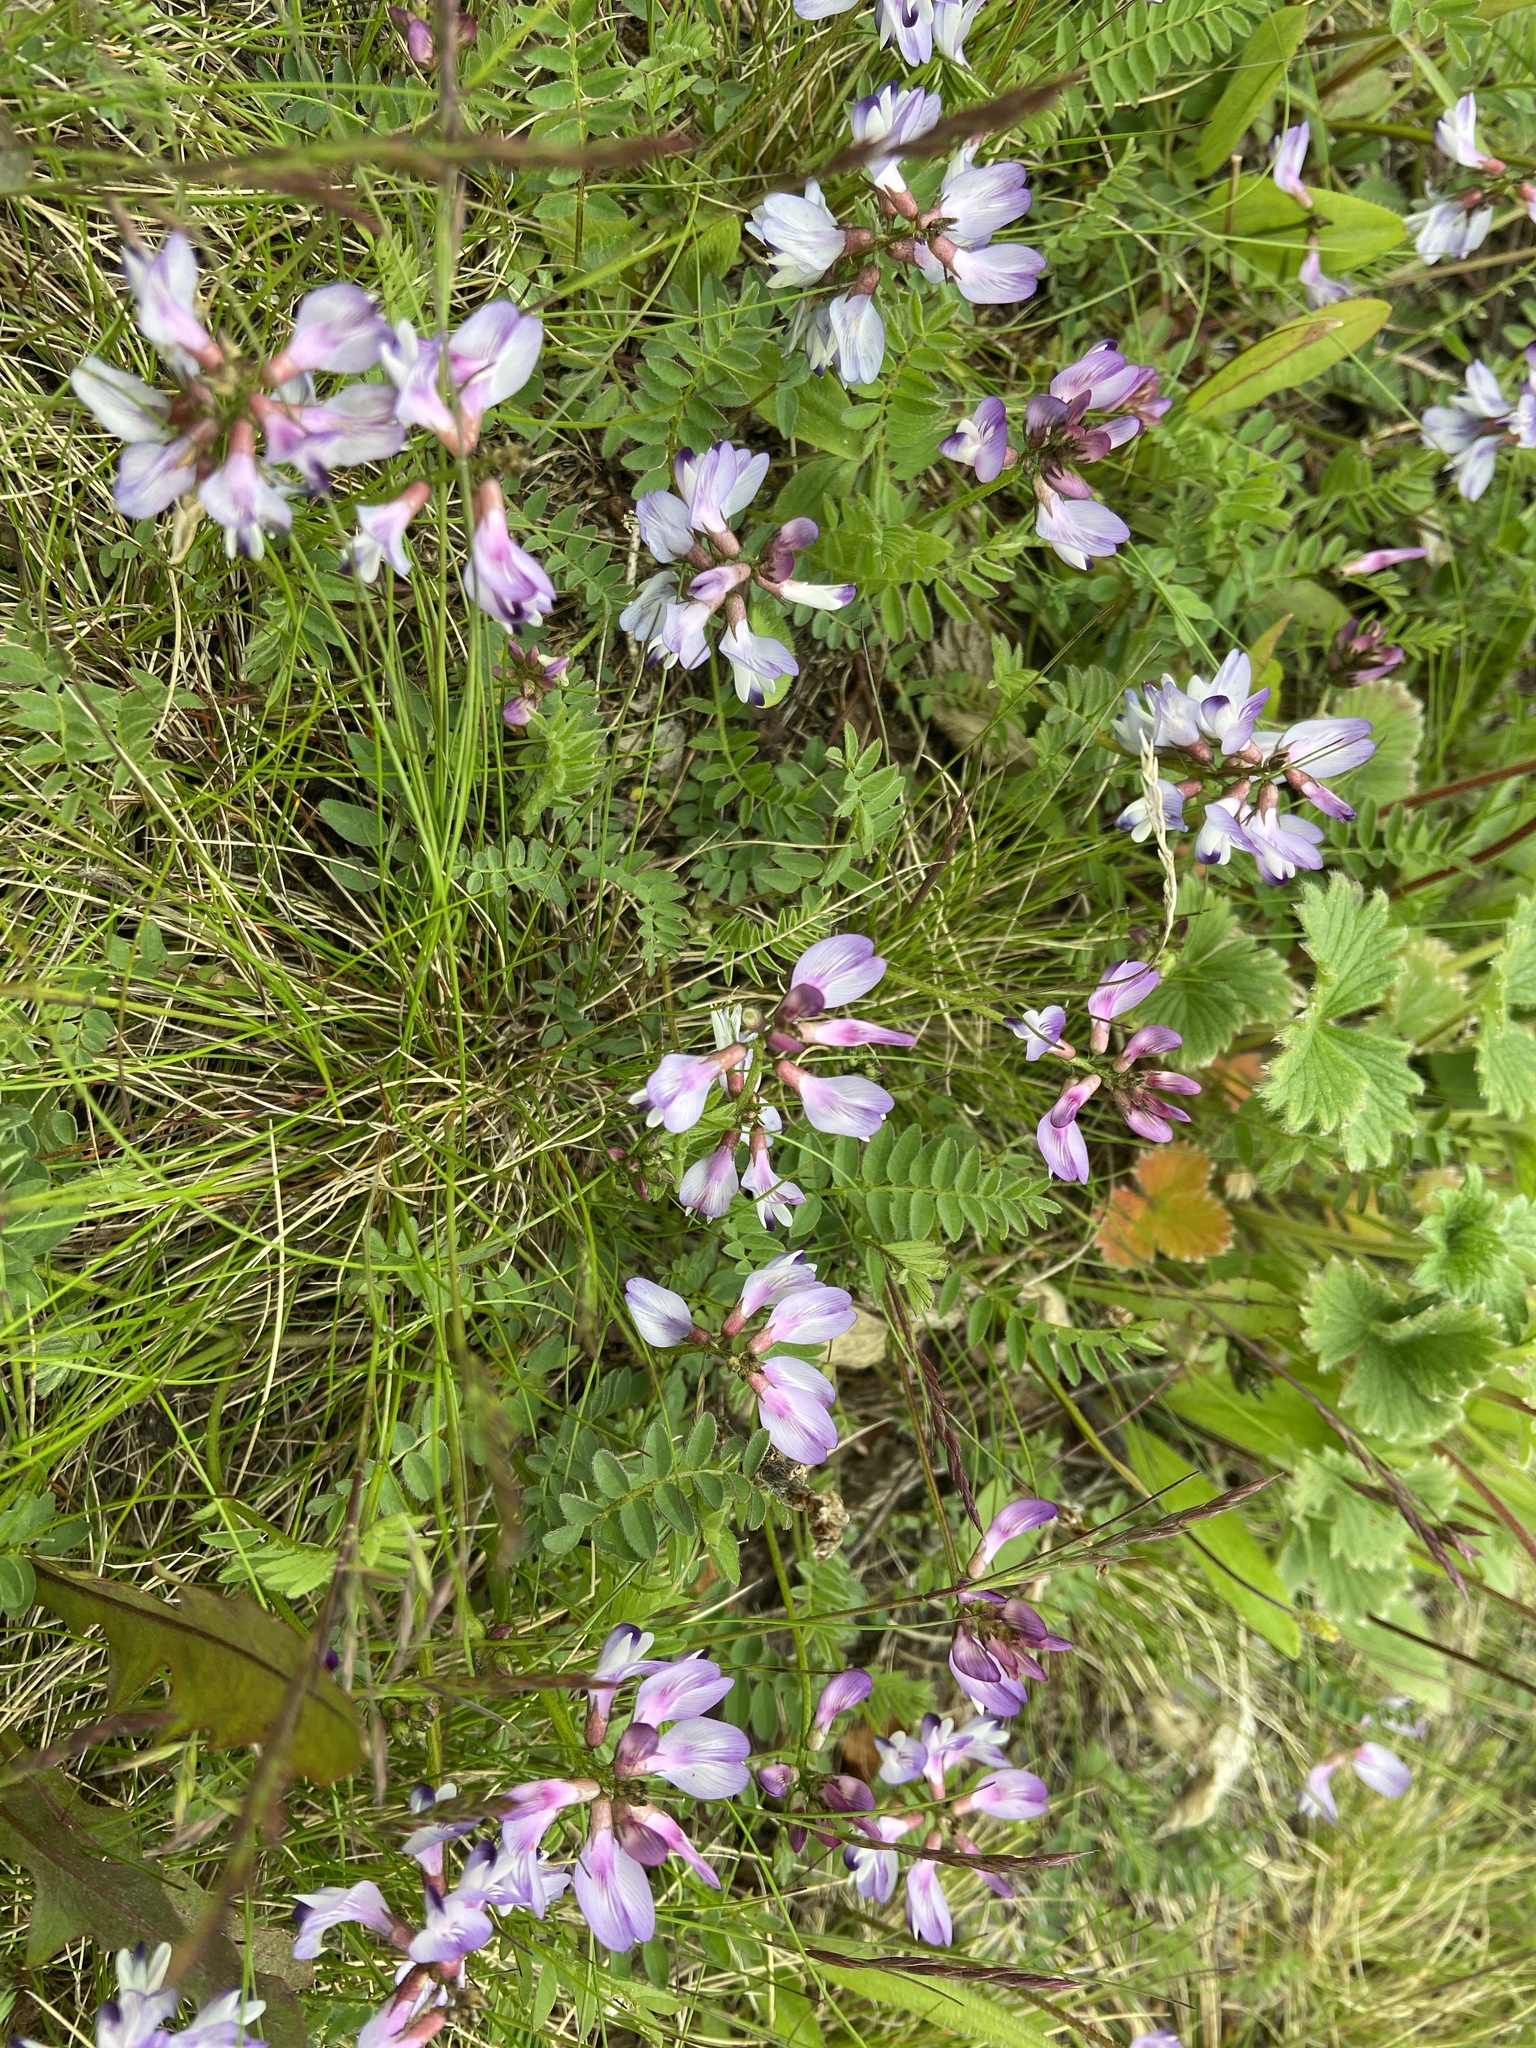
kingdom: Plantae
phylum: Tracheophyta
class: Magnoliopsida
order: Fabales
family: Fabaceae
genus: Astragalus
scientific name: Astragalus alpinus
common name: Alpine milk-vetch
